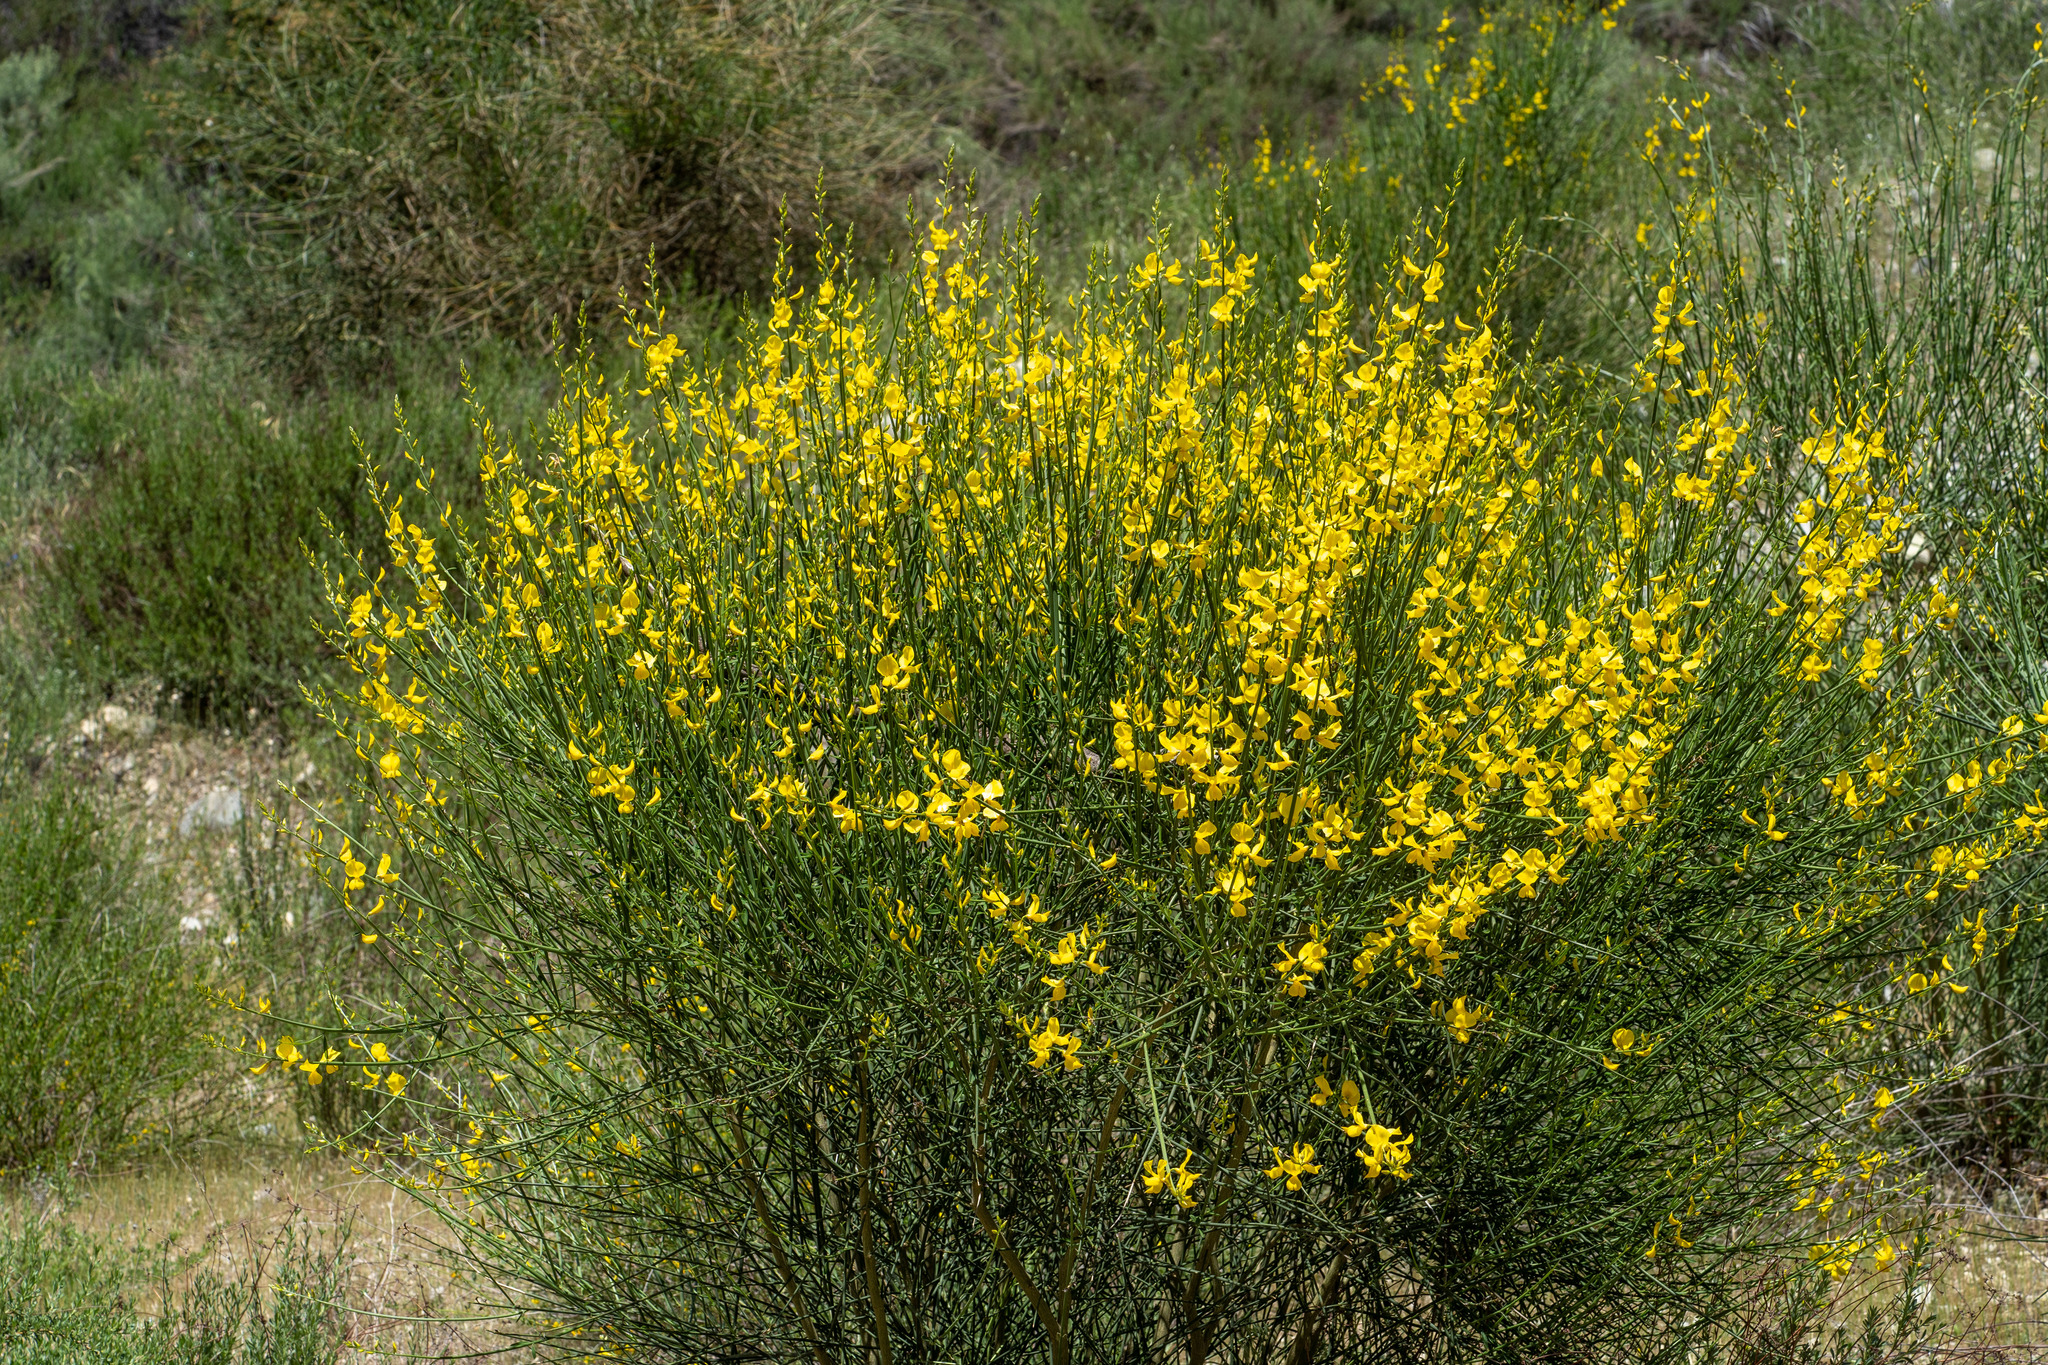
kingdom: Plantae
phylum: Tracheophyta
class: Magnoliopsida
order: Fabales
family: Fabaceae
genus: Spartium
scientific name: Spartium junceum
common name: Spanish broom
